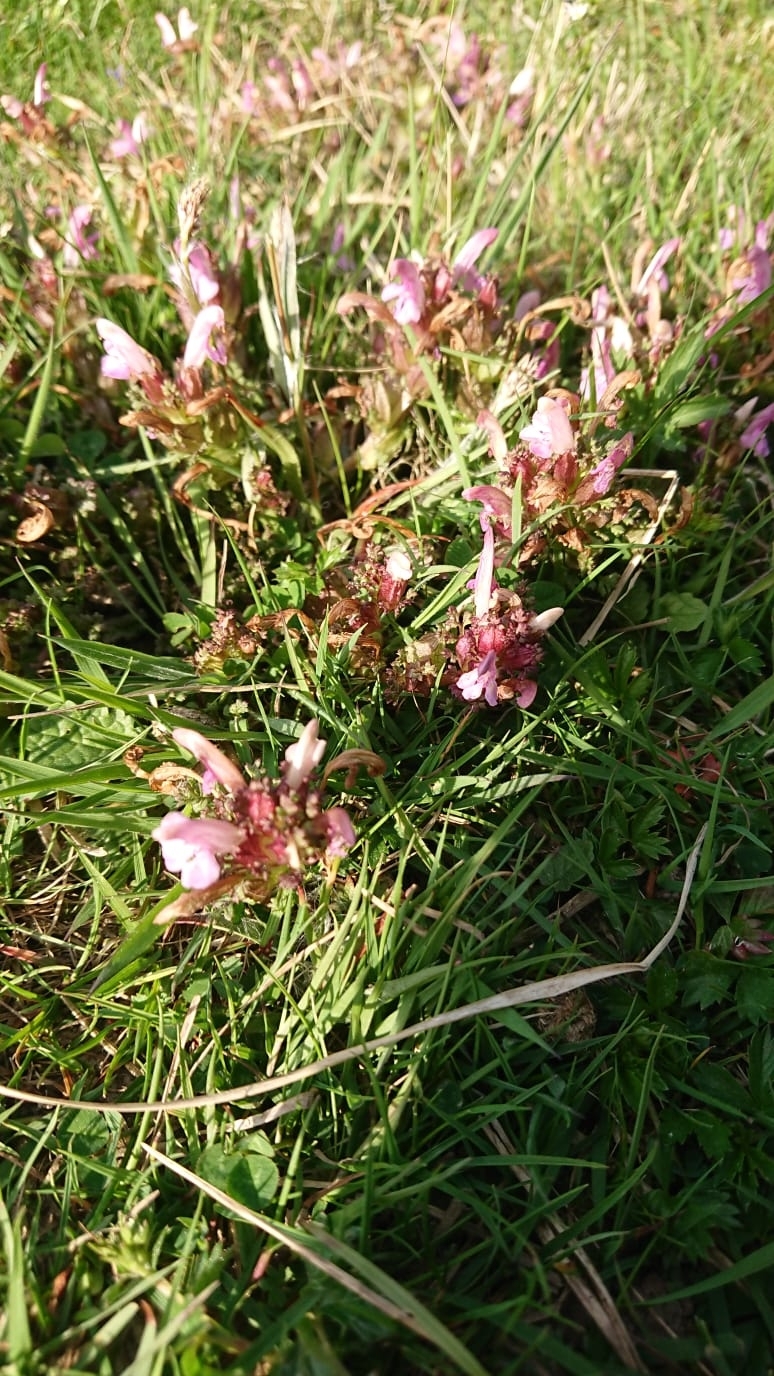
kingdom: Plantae
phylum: Tracheophyta
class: Magnoliopsida
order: Lamiales
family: Orobanchaceae
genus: Pedicularis
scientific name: Pedicularis sylvatica
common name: Lousewort
